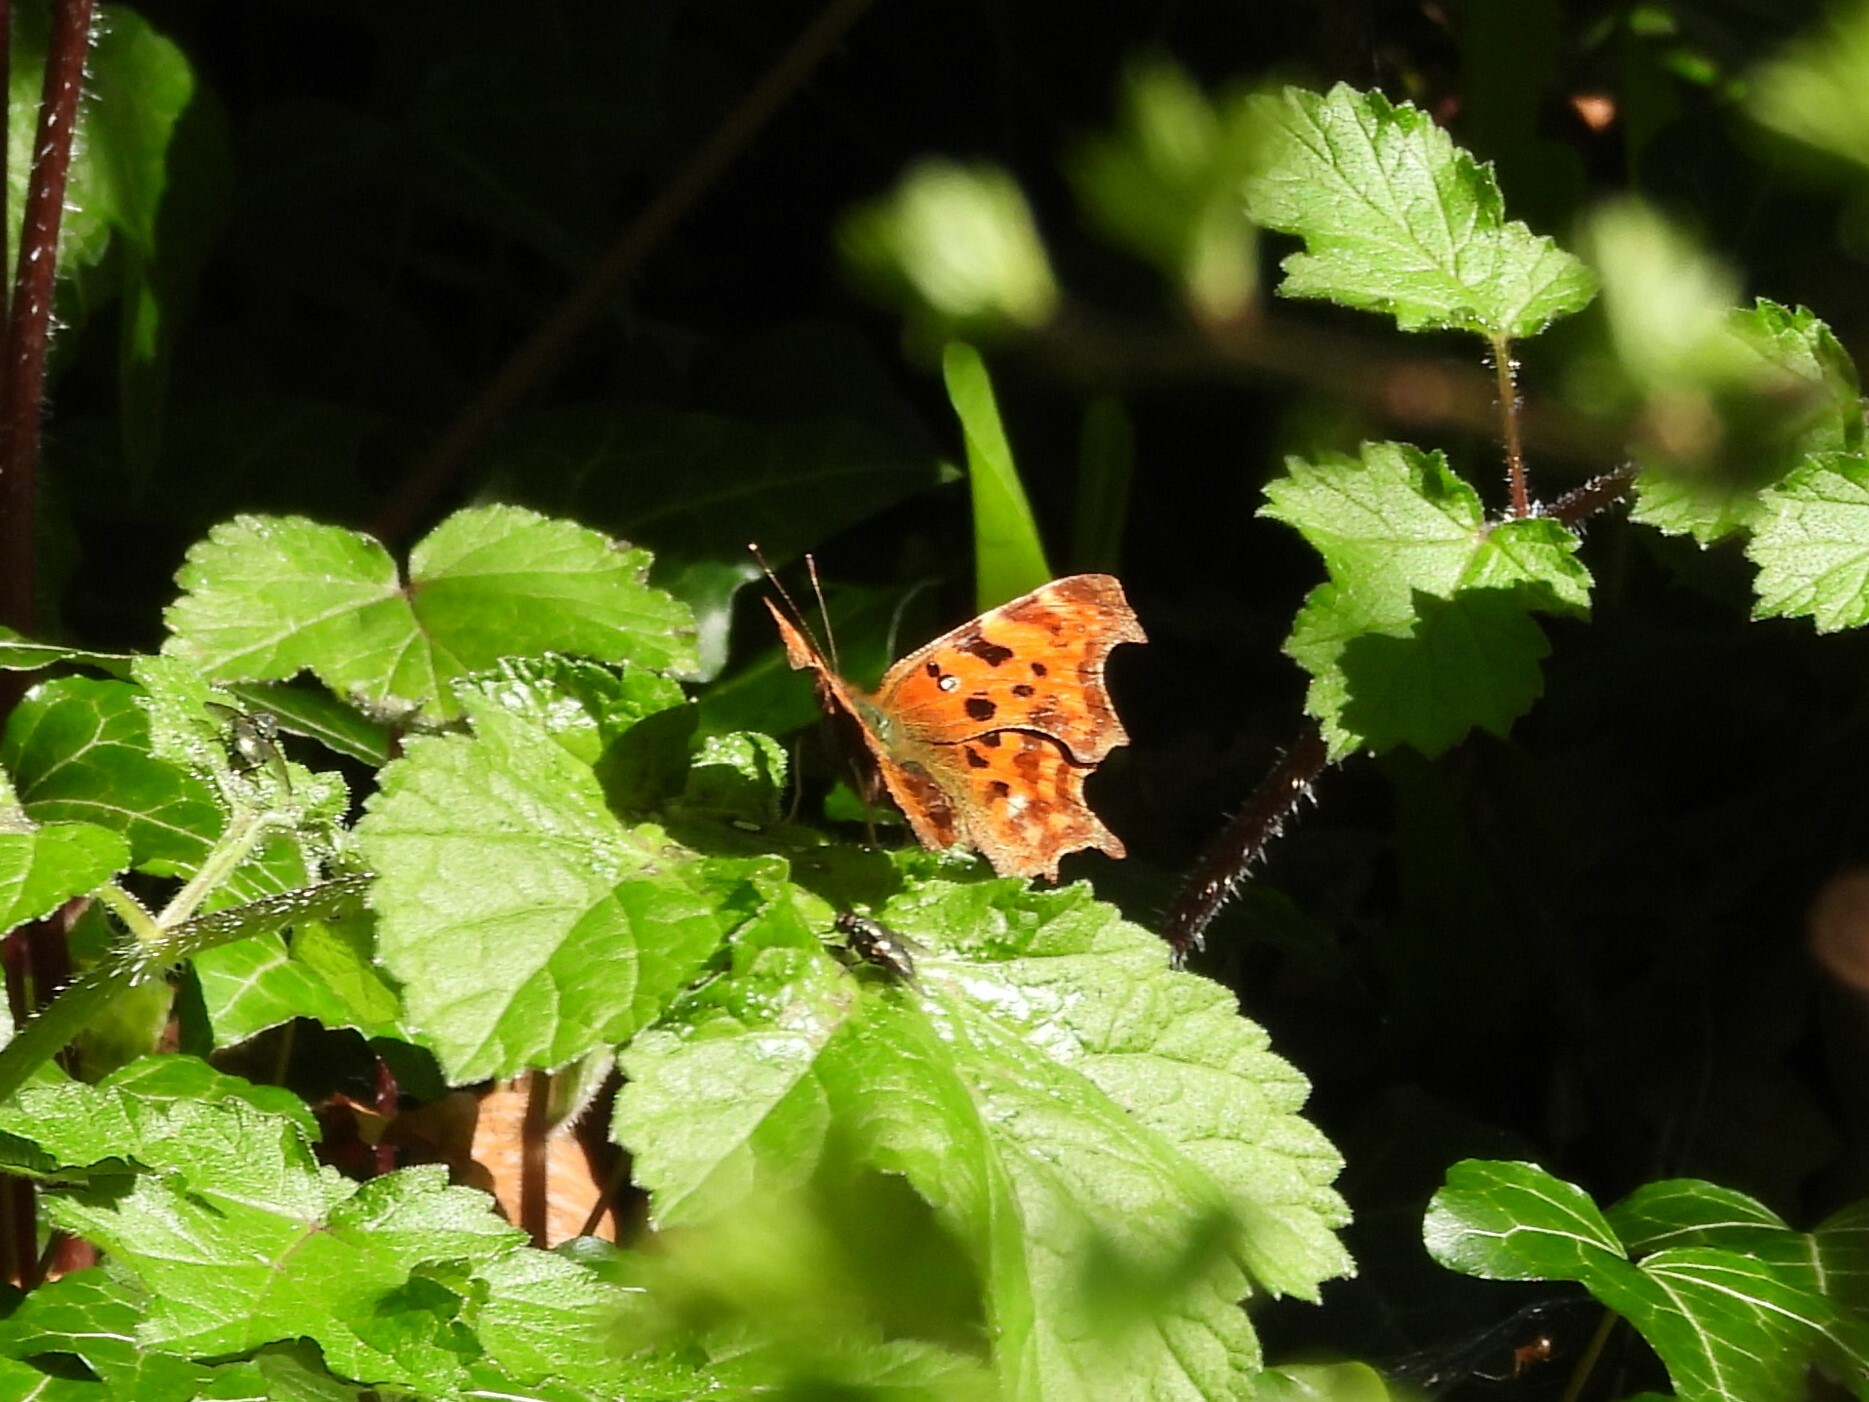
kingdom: Animalia
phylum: Arthropoda
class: Insecta
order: Lepidoptera
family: Nymphalidae
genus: Polygonia
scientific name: Polygonia c-album
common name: Comma
